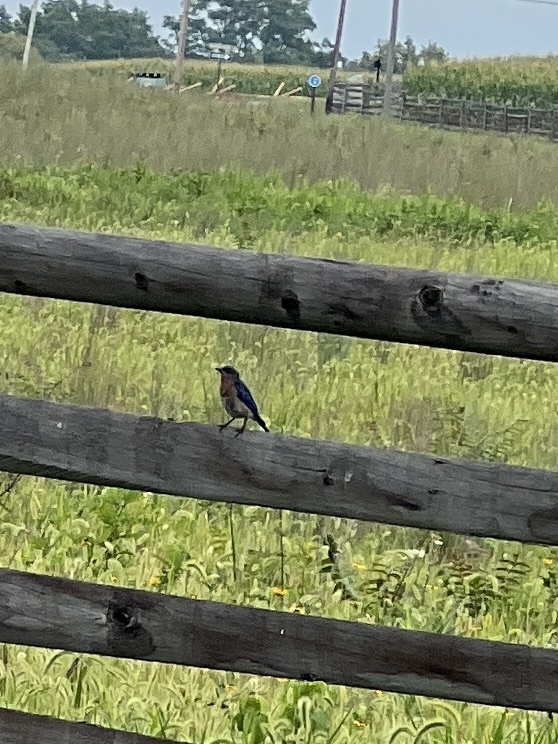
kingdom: Animalia
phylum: Chordata
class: Aves
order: Passeriformes
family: Turdidae
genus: Sialia
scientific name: Sialia sialis
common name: Eastern bluebird
